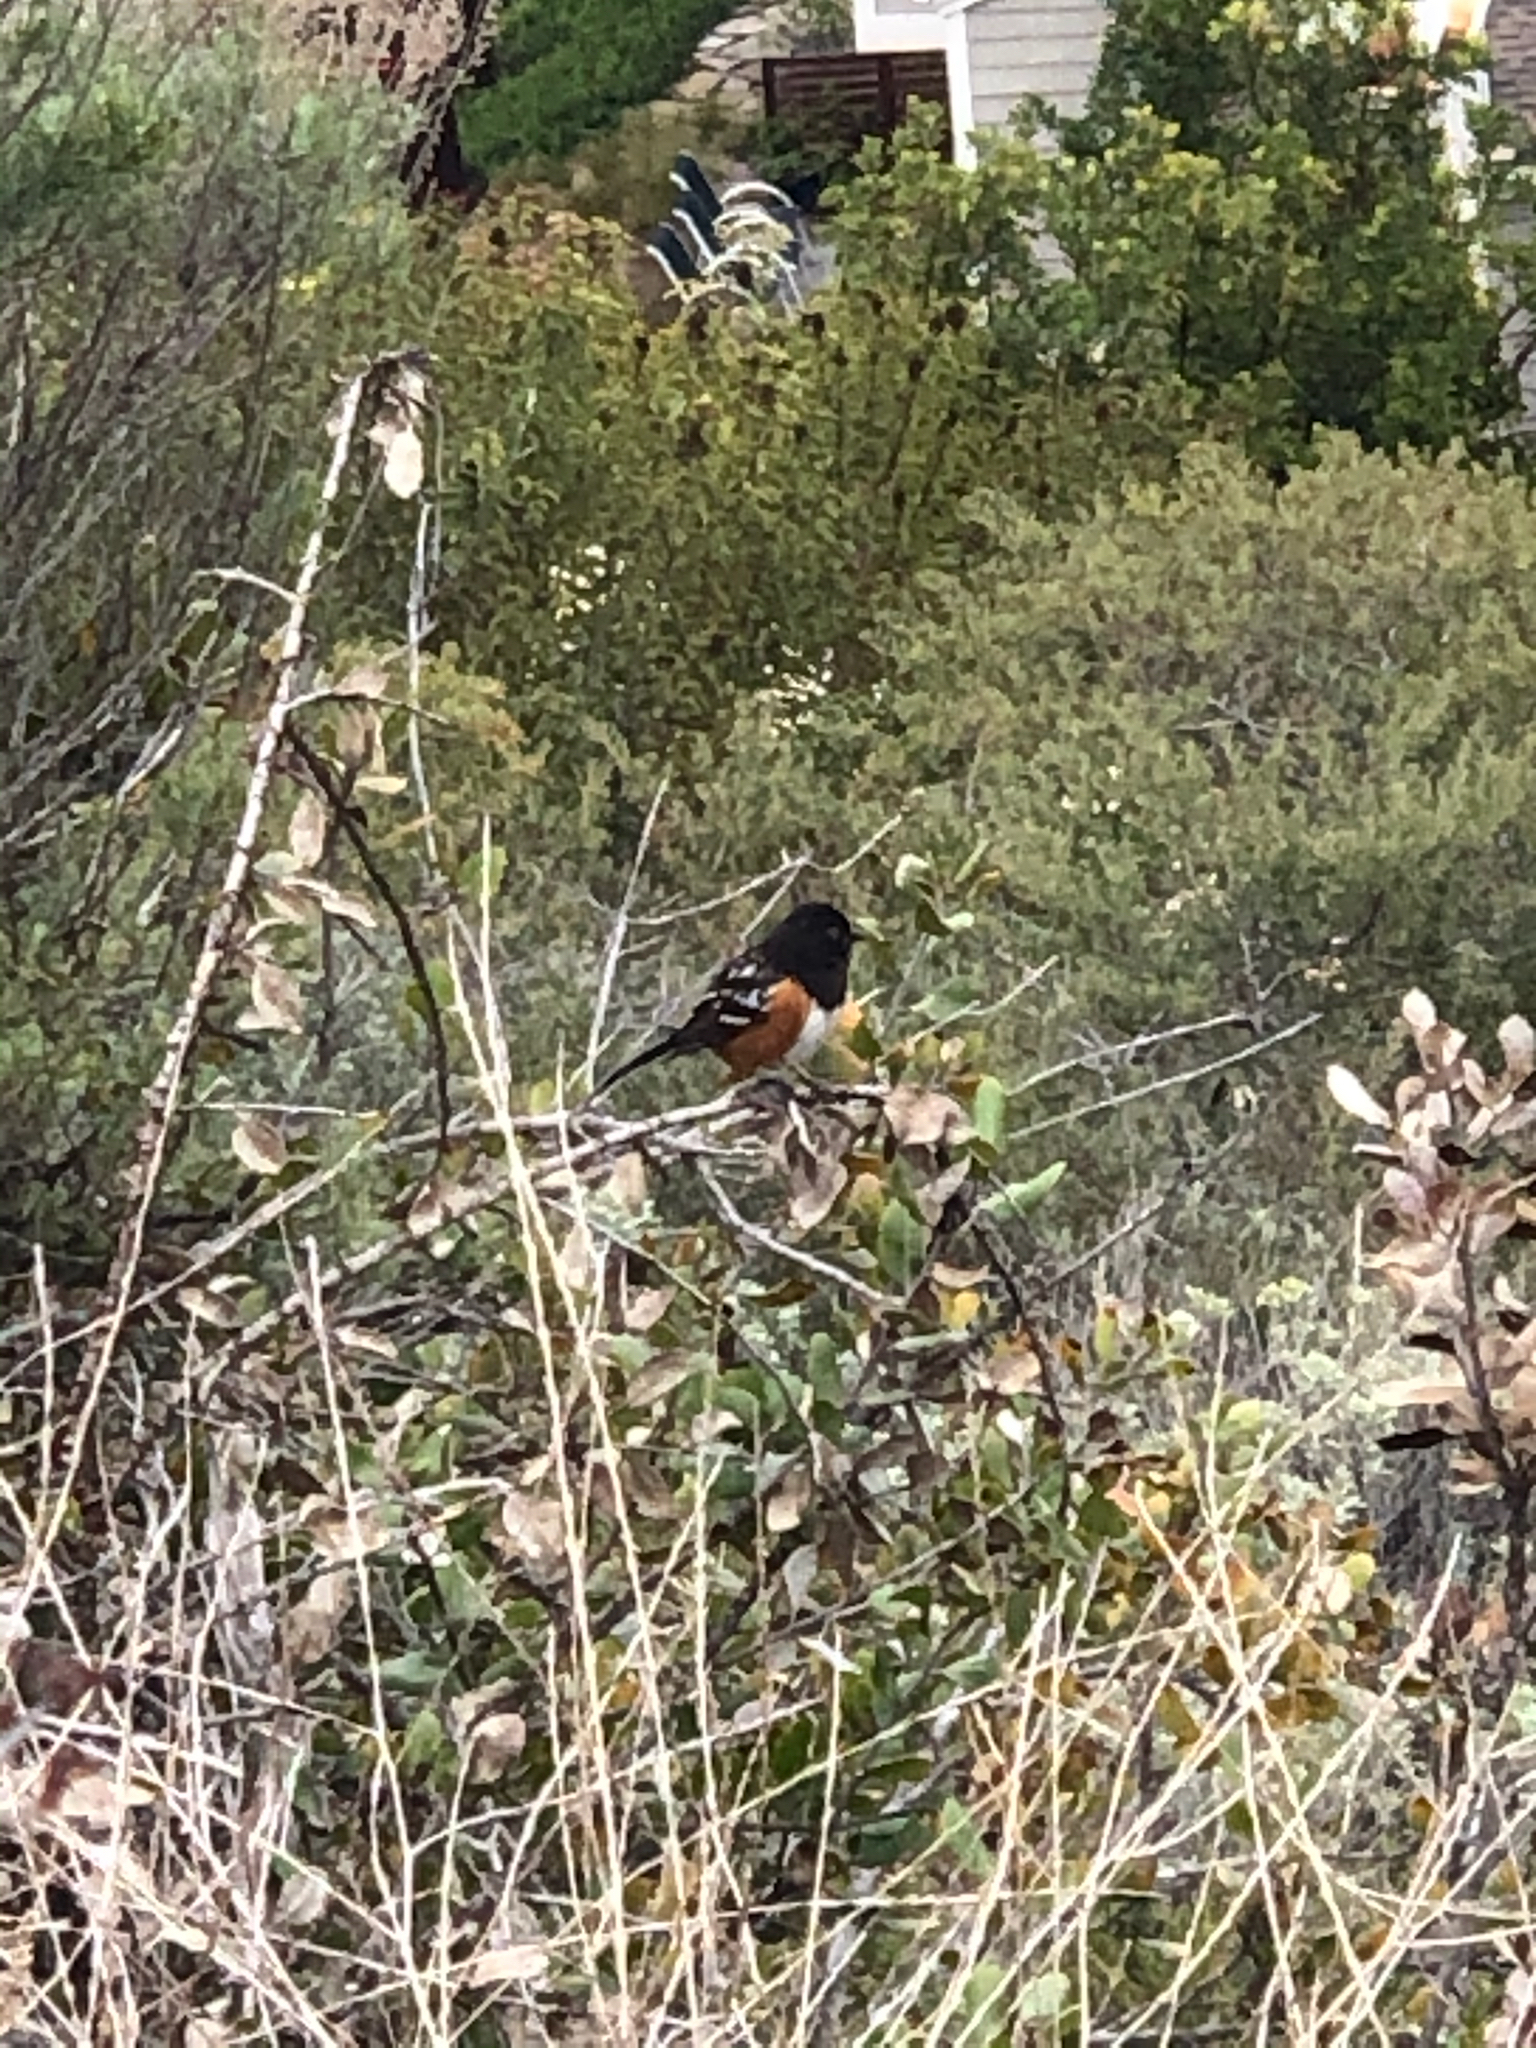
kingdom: Animalia
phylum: Chordata
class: Aves
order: Passeriformes
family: Passerellidae
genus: Pipilo
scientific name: Pipilo maculatus
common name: Spotted towhee
